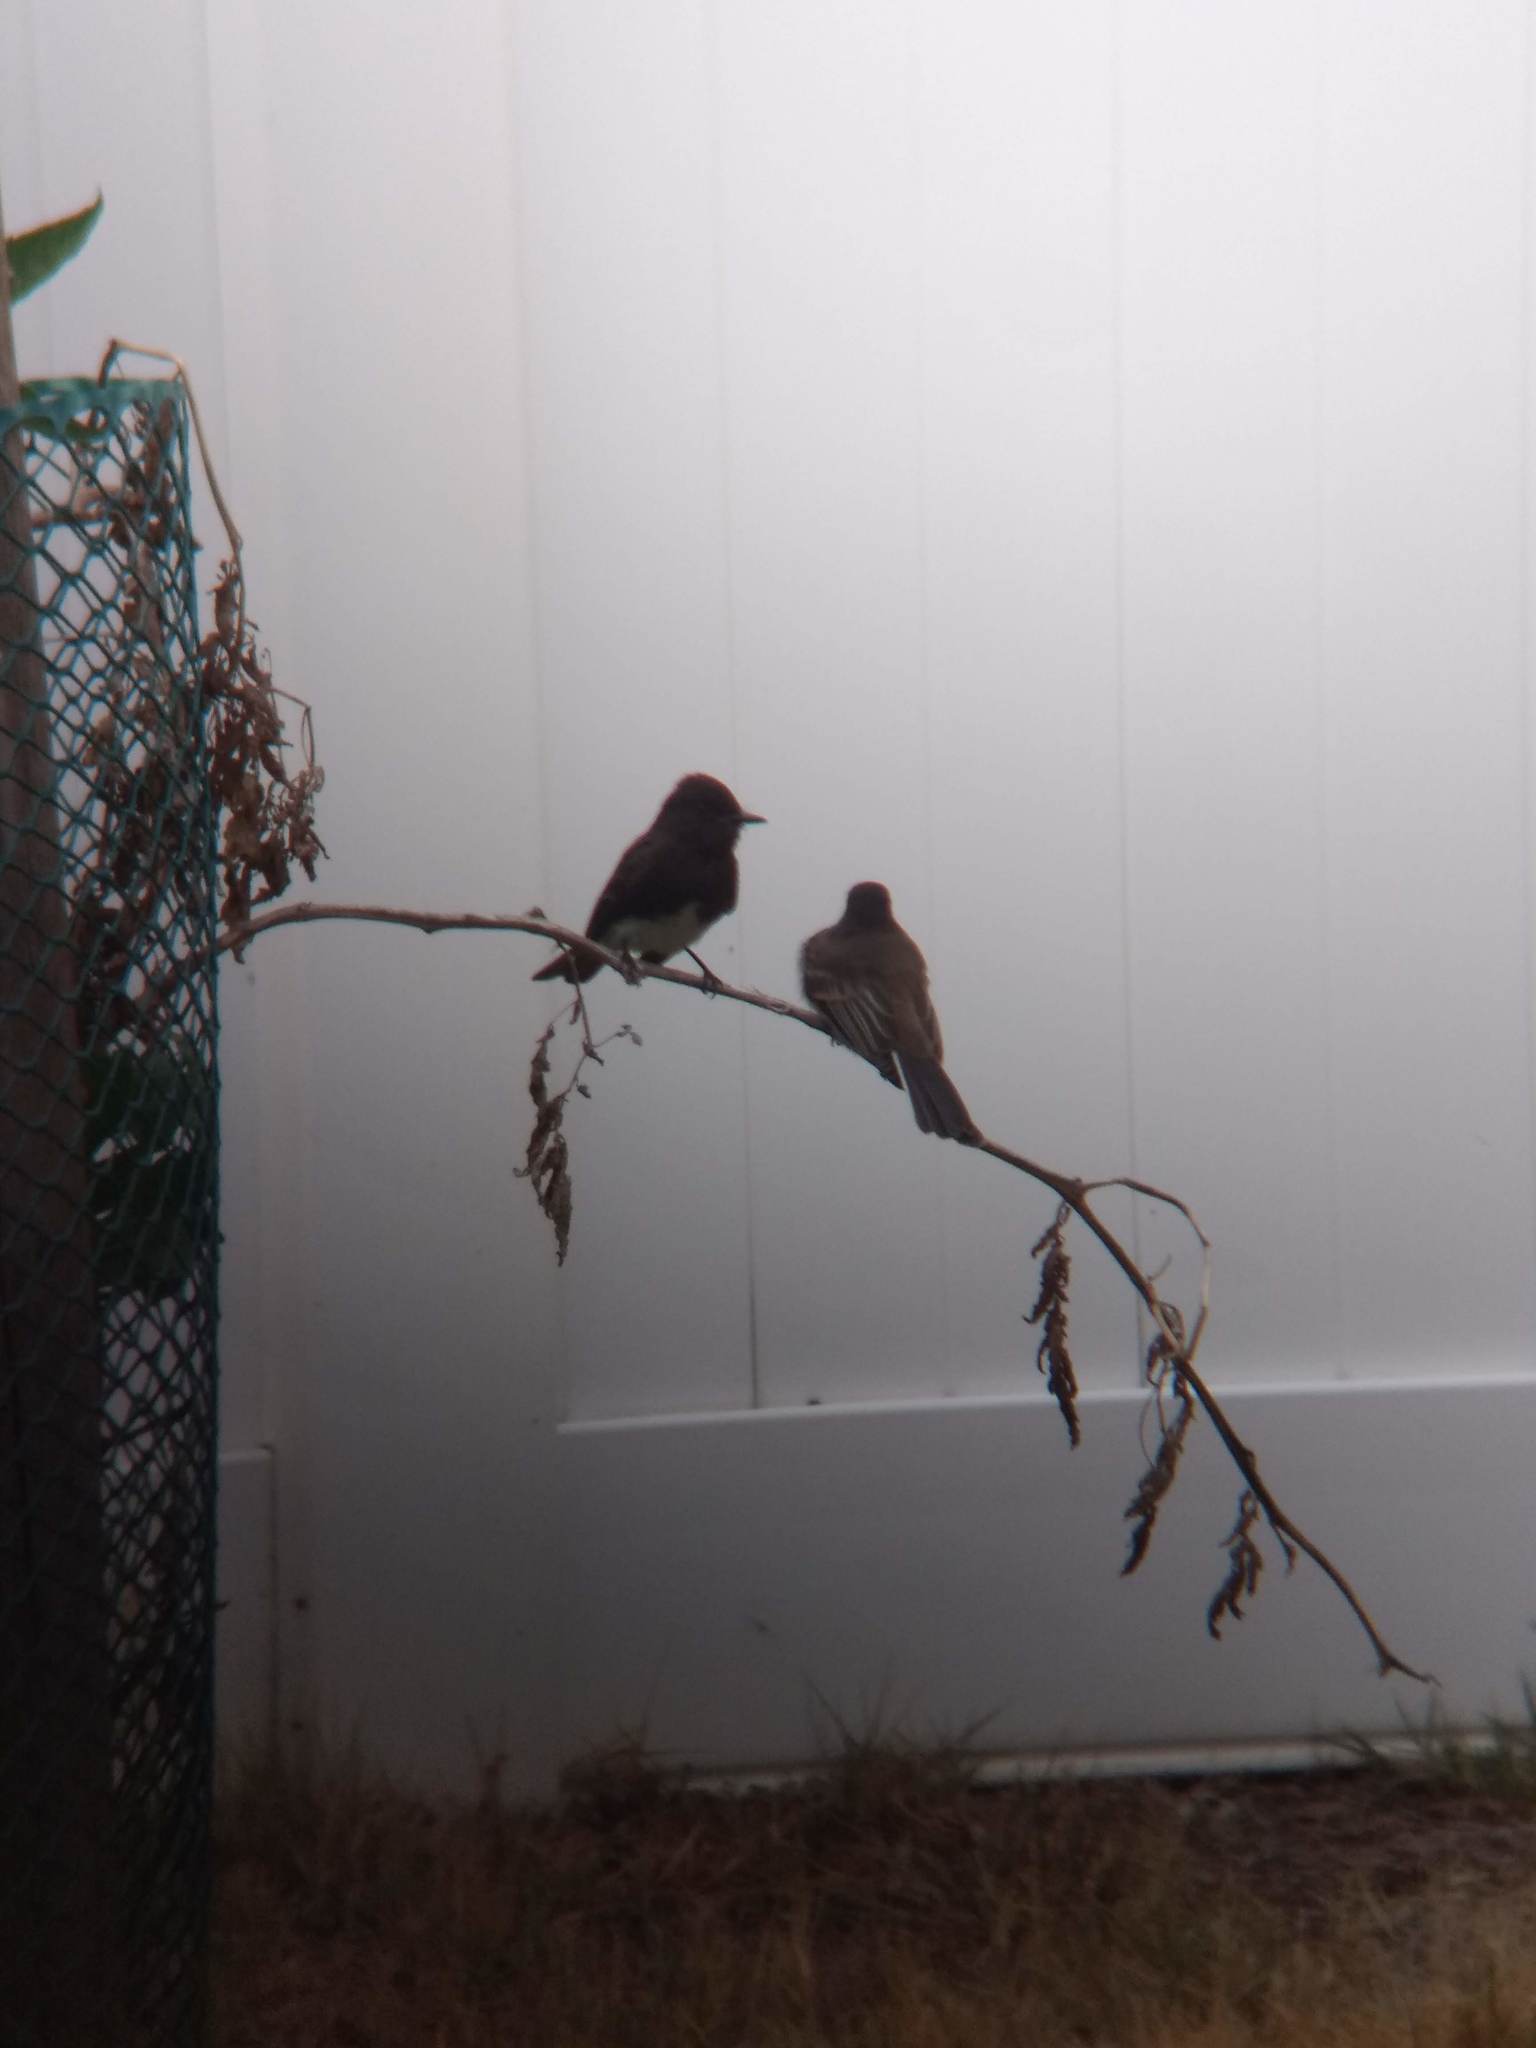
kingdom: Animalia
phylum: Chordata
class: Aves
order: Passeriformes
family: Tyrannidae
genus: Sayornis
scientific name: Sayornis nigricans
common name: Black phoebe
